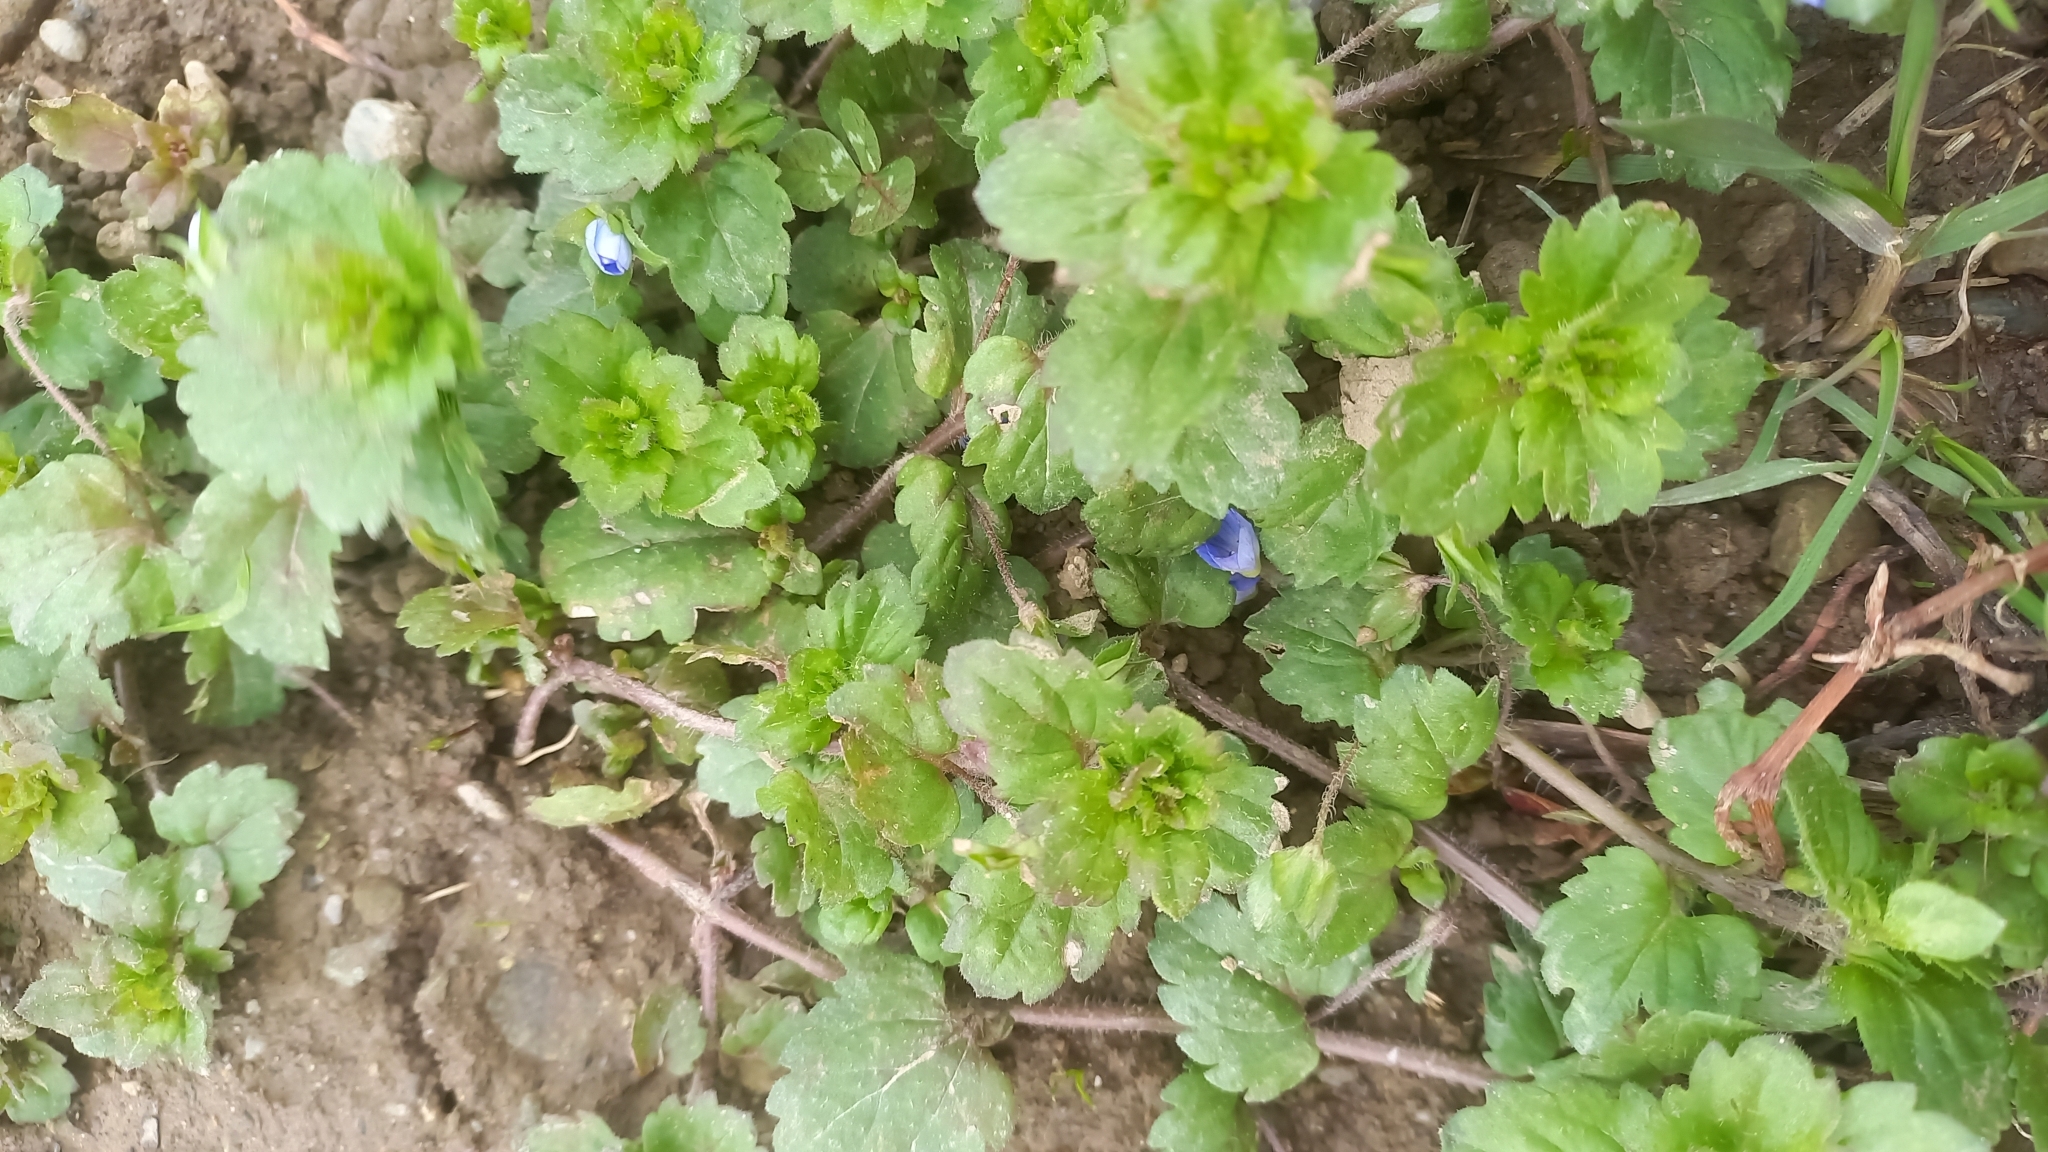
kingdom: Plantae
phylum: Tracheophyta
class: Magnoliopsida
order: Lamiales
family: Plantaginaceae
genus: Veronica
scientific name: Veronica persica
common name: Common field-speedwell
